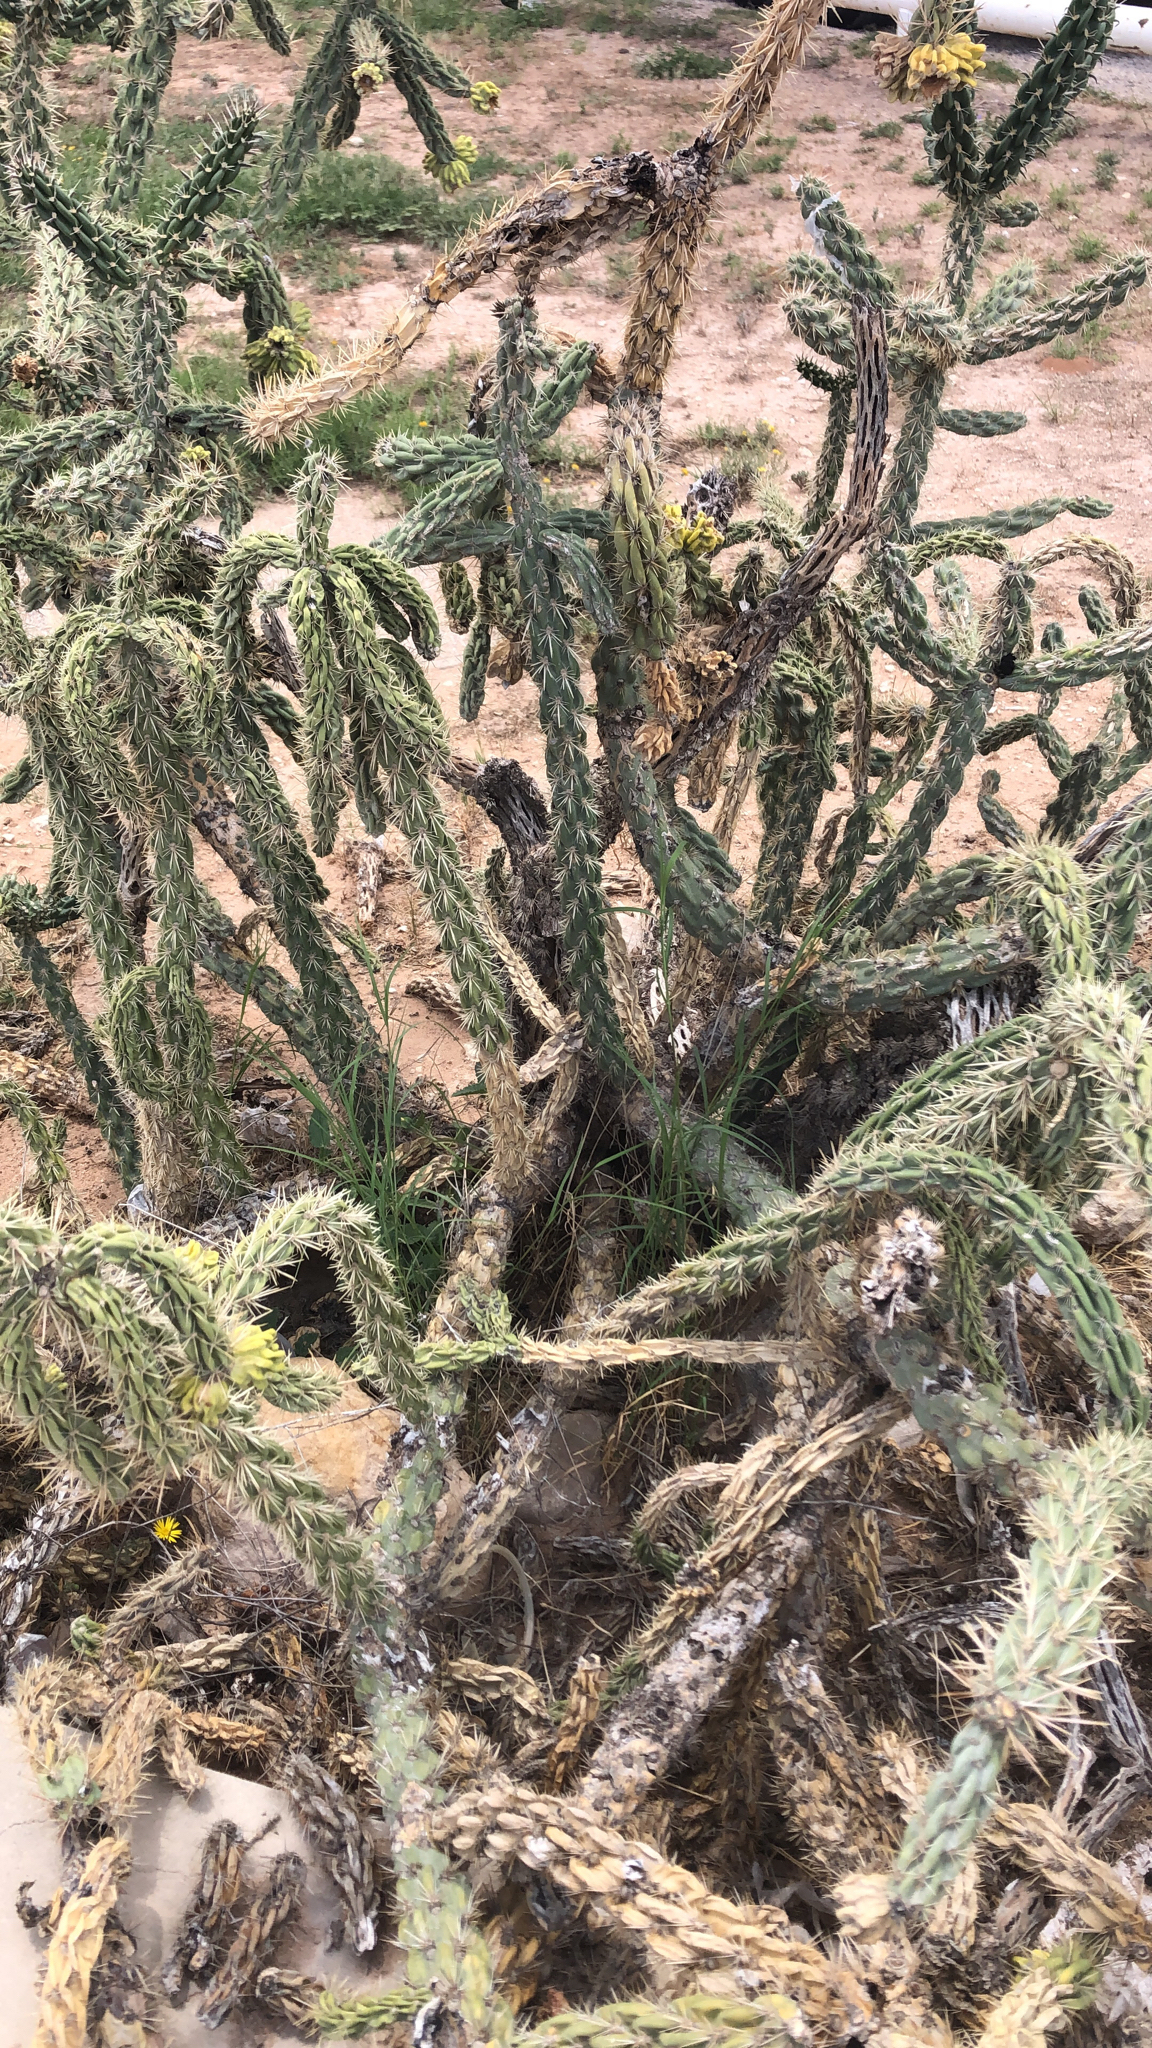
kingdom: Plantae
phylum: Tracheophyta
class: Magnoliopsida
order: Caryophyllales
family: Cactaceae
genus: Cylindropuntia
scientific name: Cylindropuntia imbricata
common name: Candelabrum cactus
